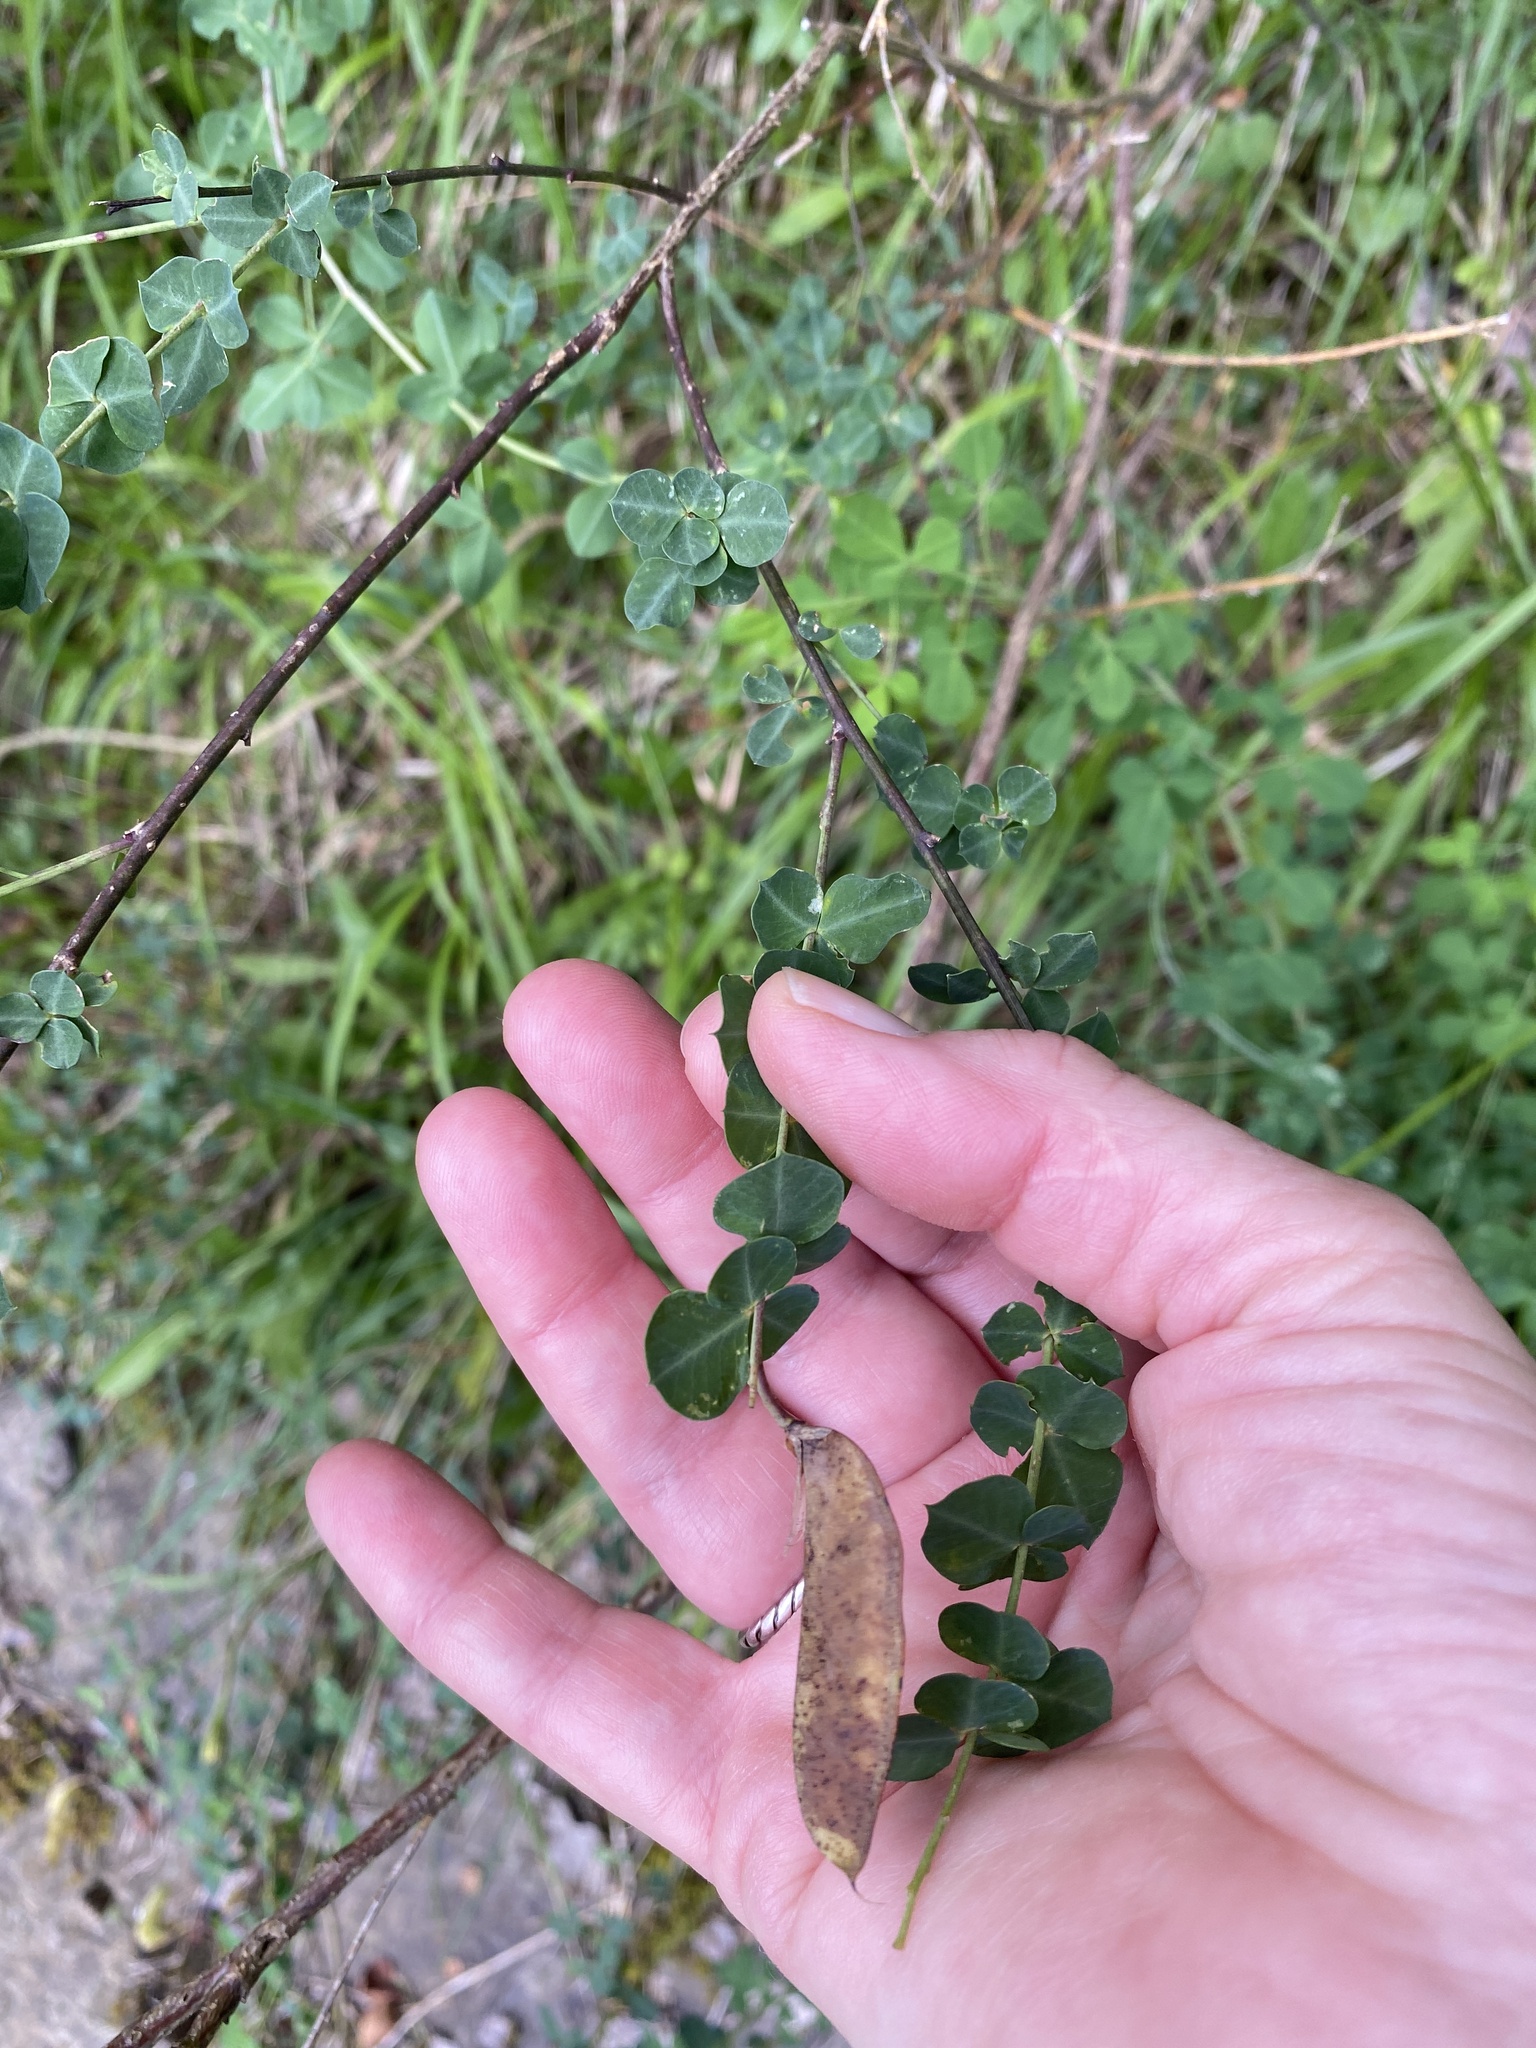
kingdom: Plantae
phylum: Tracheophyta
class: Magnoliopsida
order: Fabales
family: Fabaceae
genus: Cytisophyllum
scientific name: Cytisophyllum sessilifolium
